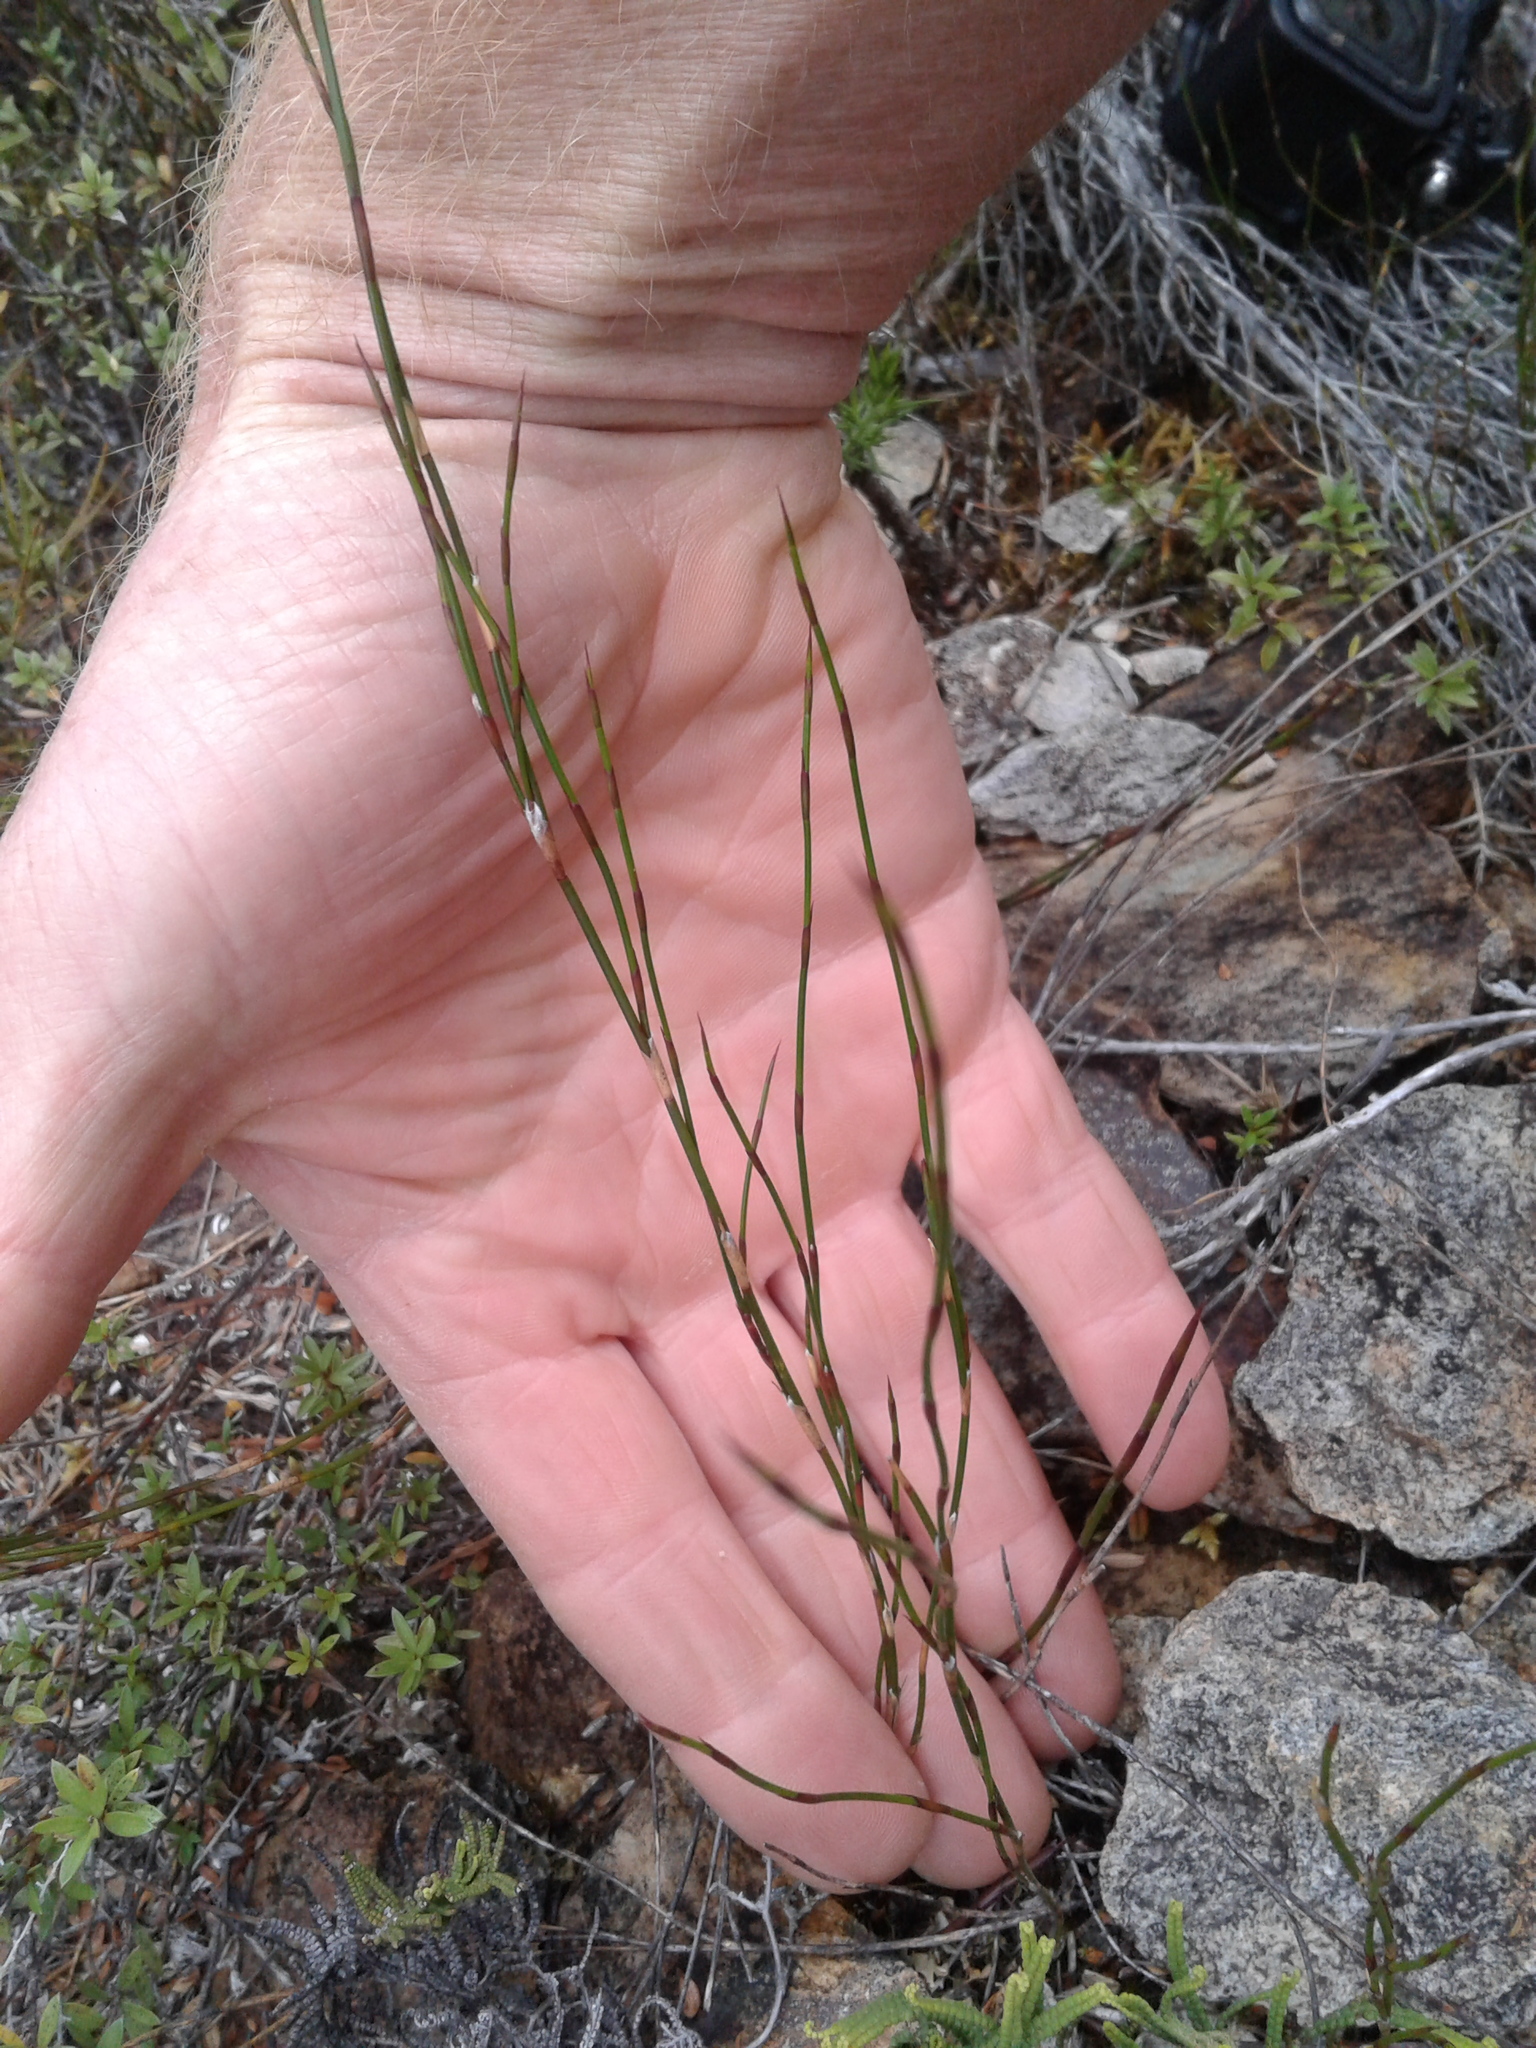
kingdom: Plantae
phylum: Tracheophyta
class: Liliopsida
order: Poales
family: Restionaceae
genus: Empodisma
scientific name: Empodisma minus
